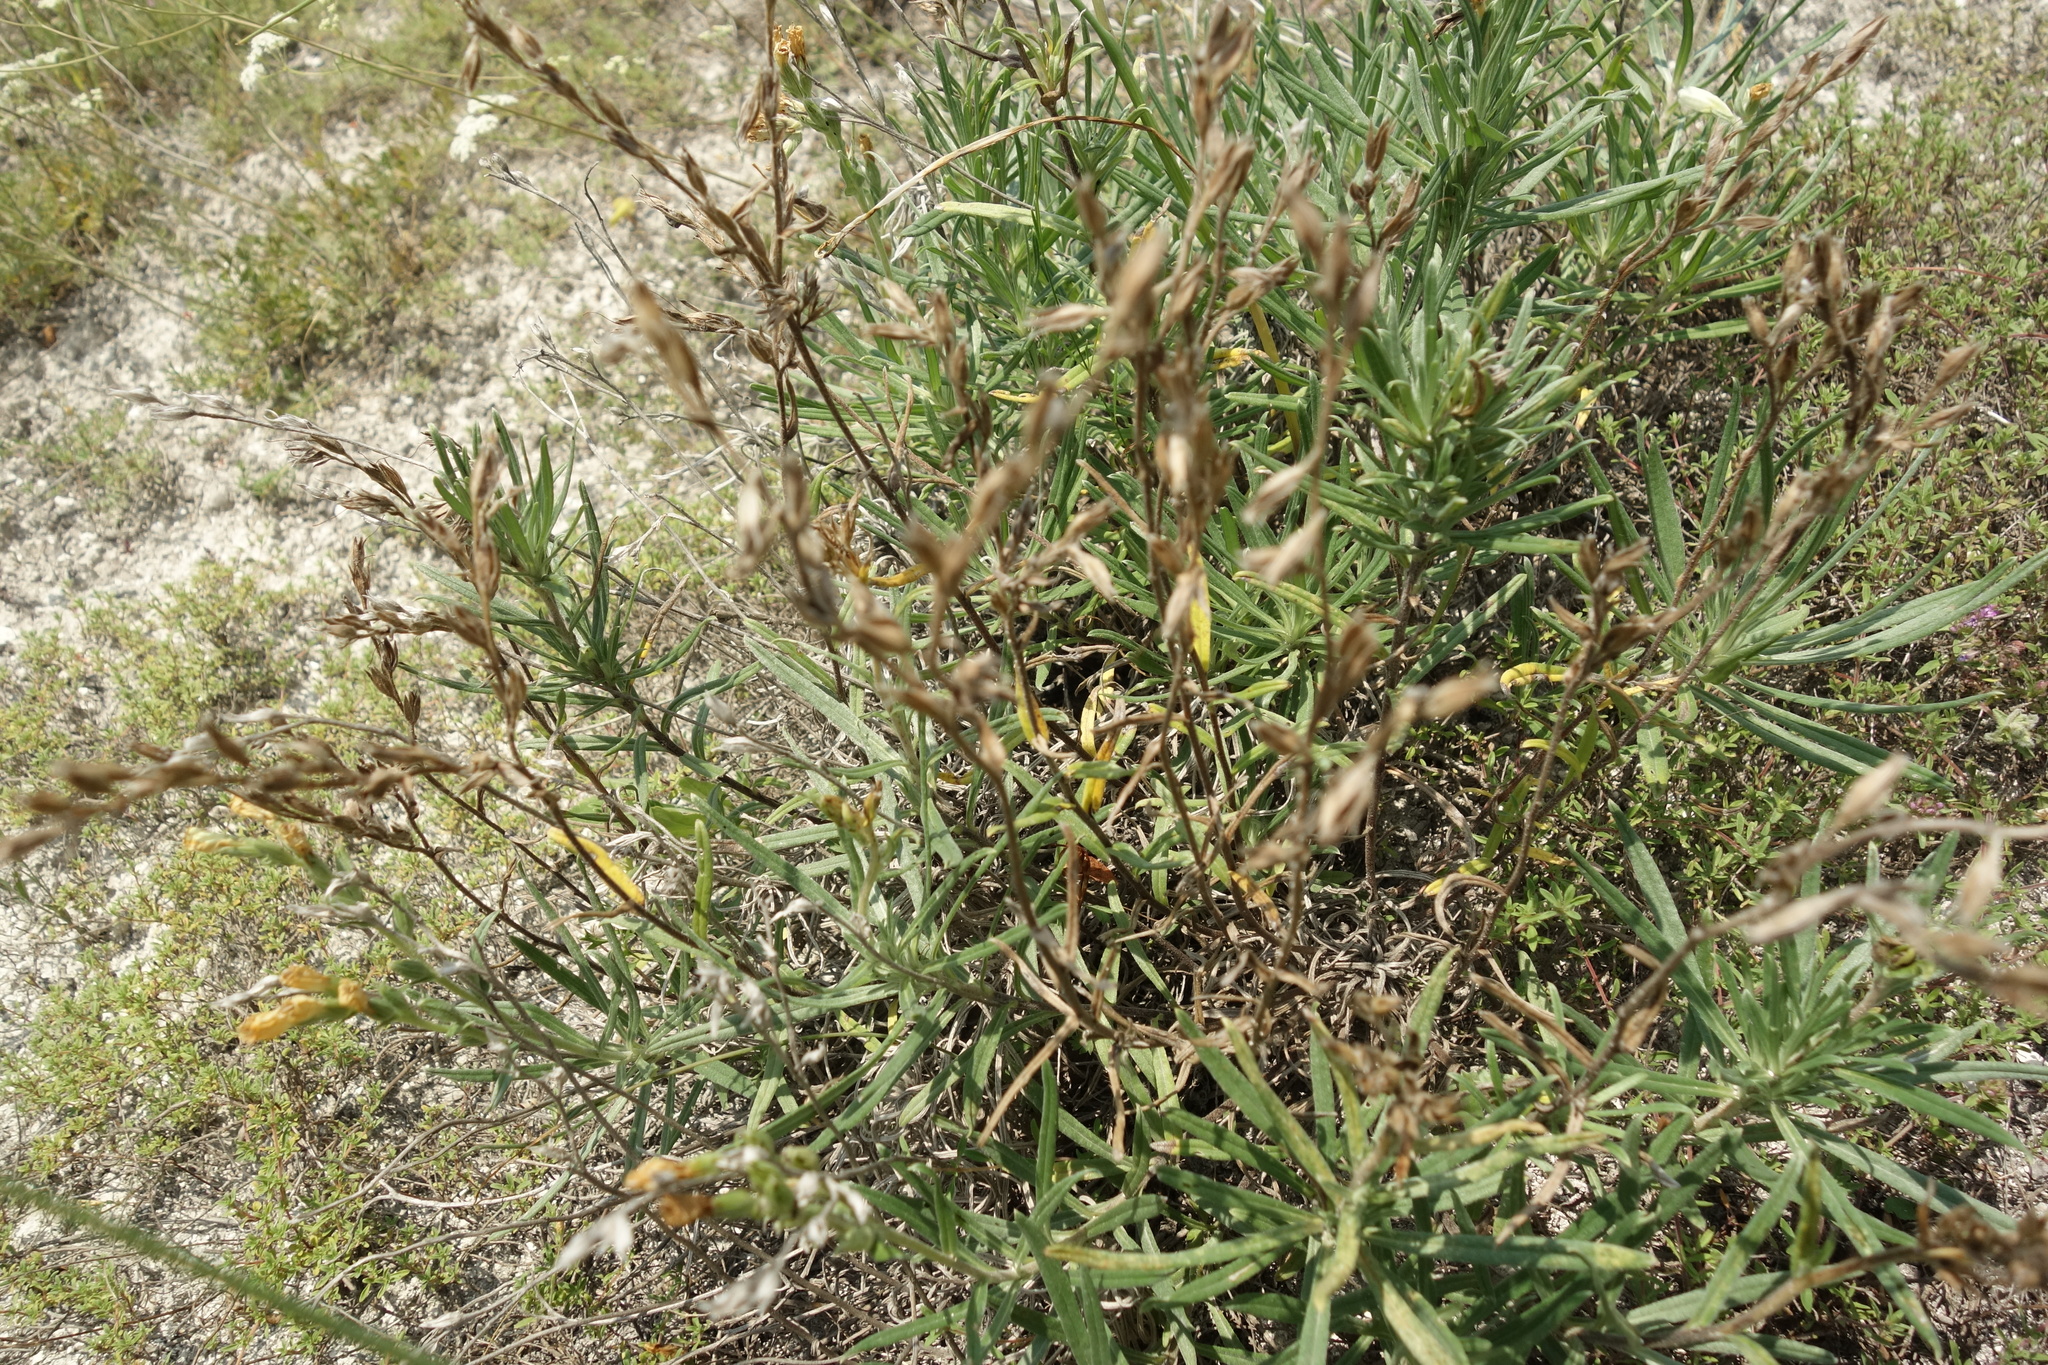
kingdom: Plantae
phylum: Tracheophyta
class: Magnoliopsida
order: Boraginales
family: Boraginaceae
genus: Onosma
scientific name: Onosma simplicissima
